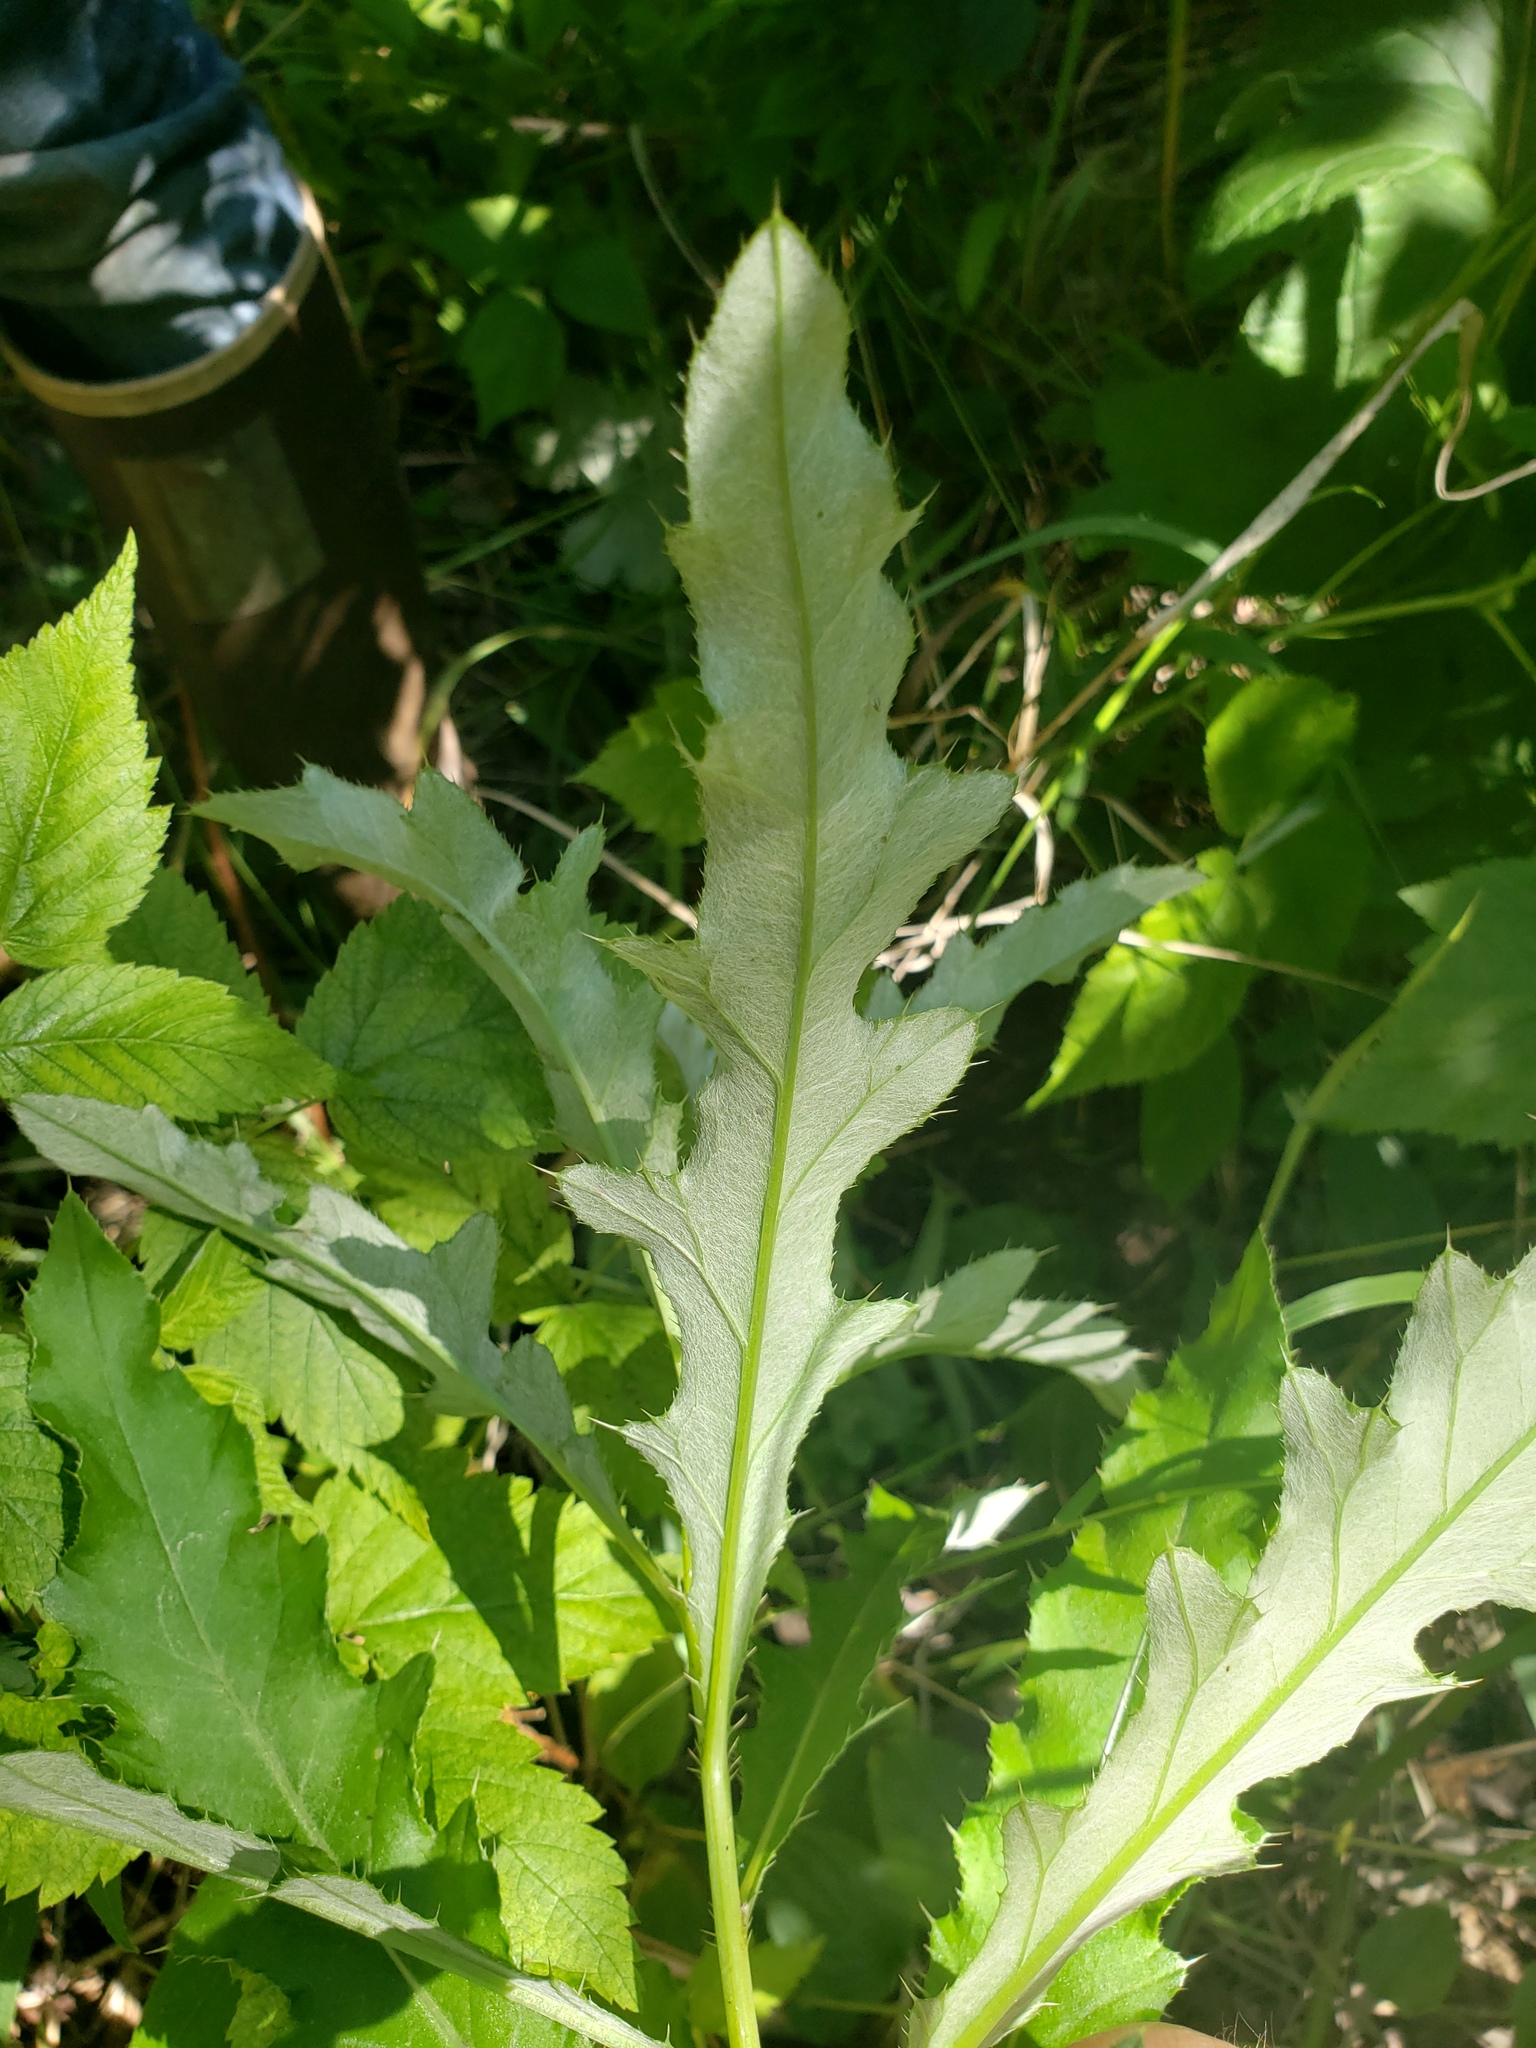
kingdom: Plantae
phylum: Tracheophyta
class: Magnoliopsida
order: Asterales
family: Asteraceae
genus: Cirsium
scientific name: Cirsium arvense
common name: Creeping thistle
